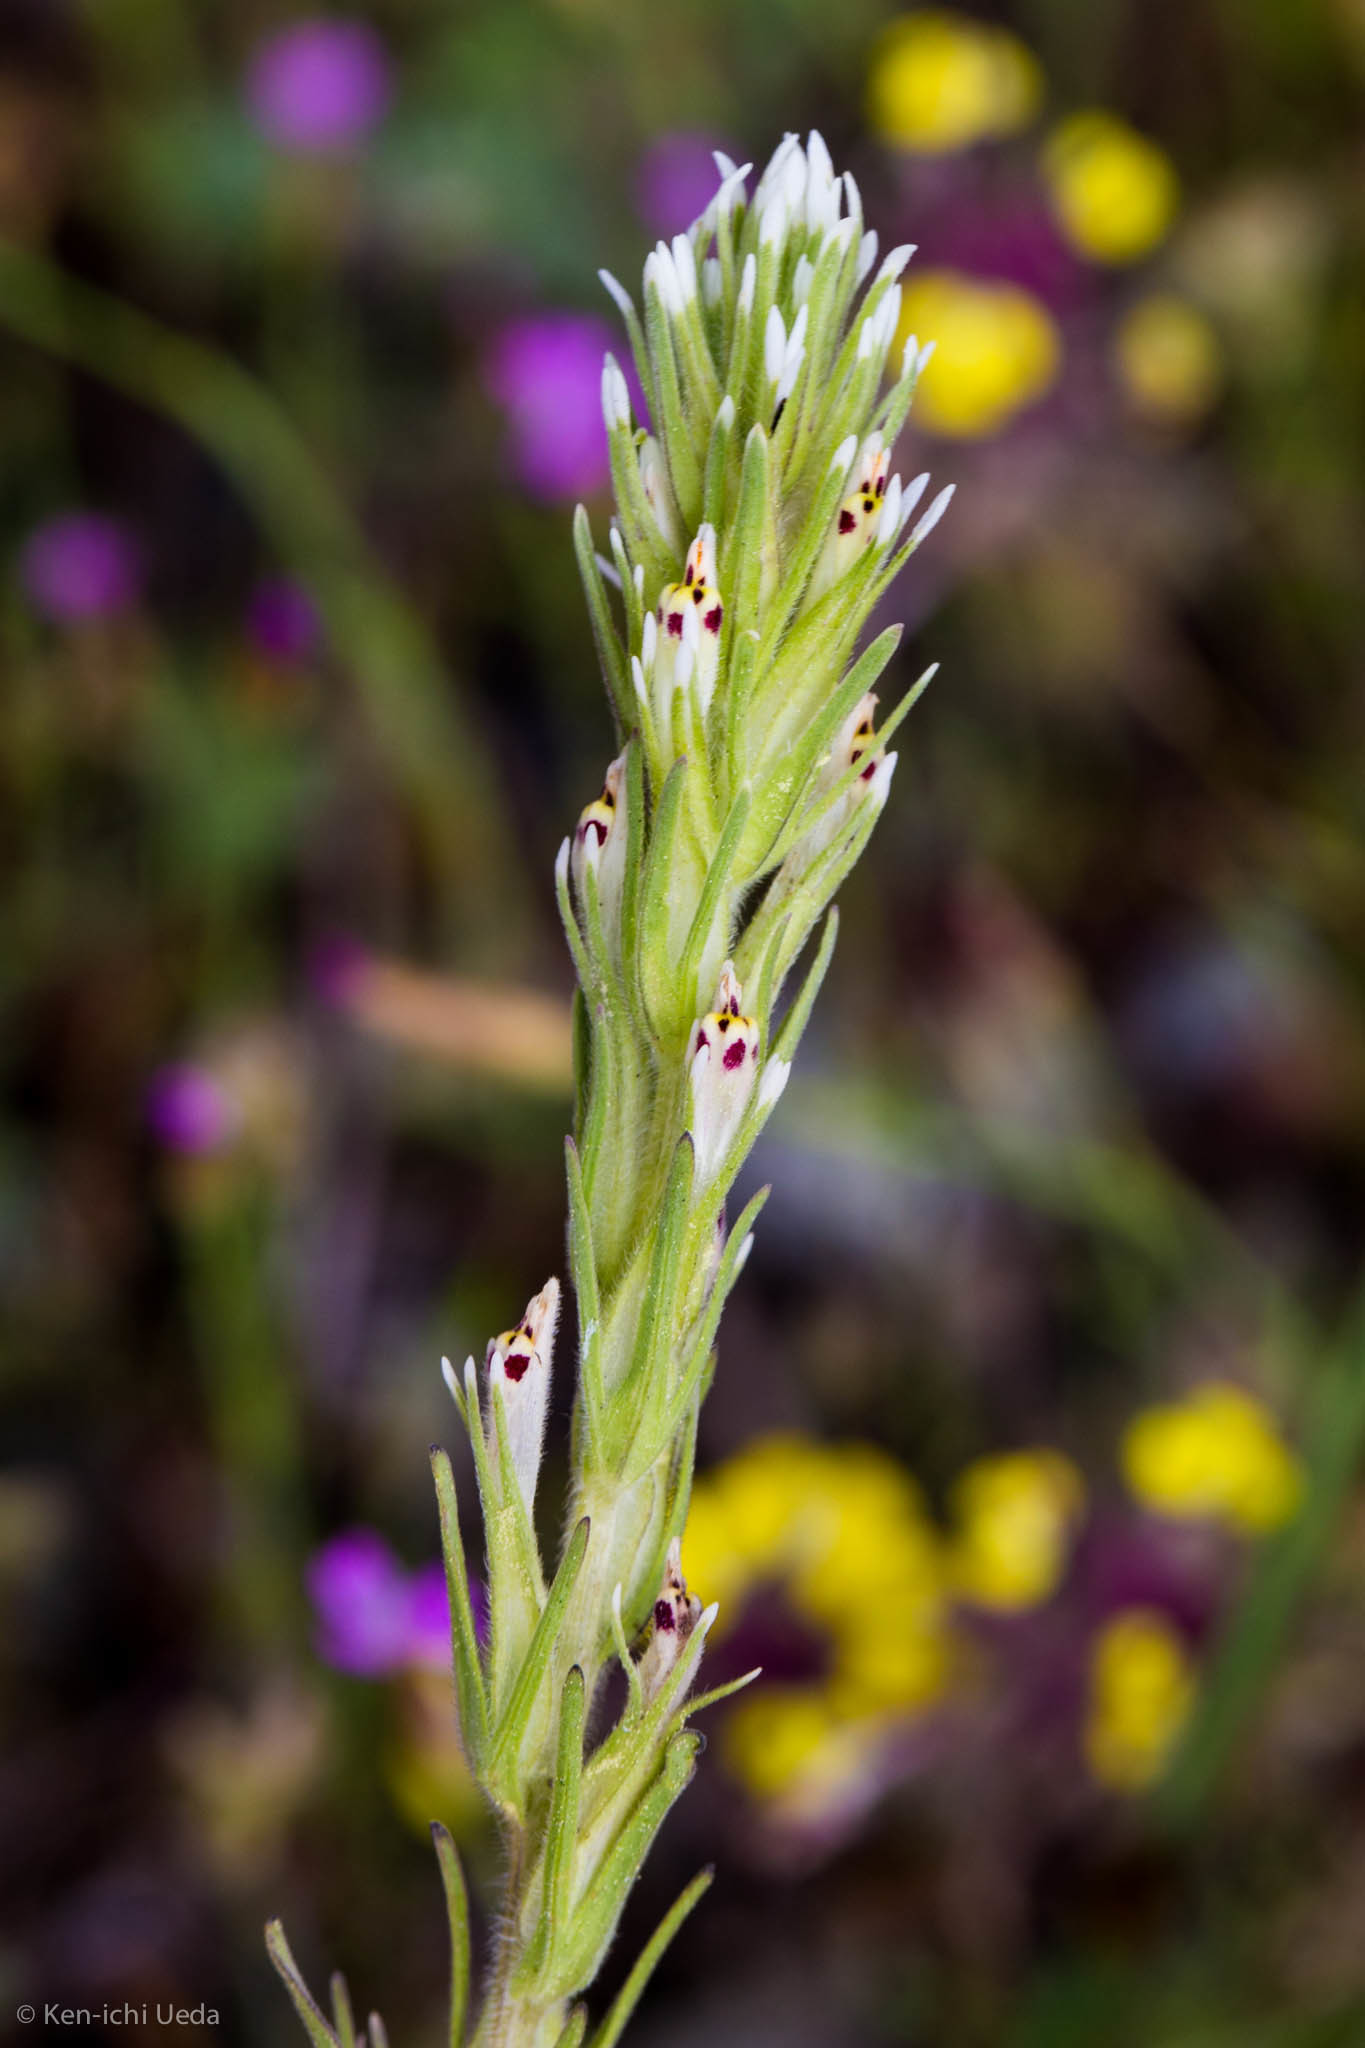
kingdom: Plantae
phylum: Tracheophyta
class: Magnoliopsida
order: Lamiales
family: Orobanchaceae
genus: Castilleja
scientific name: Castilleja attenuata
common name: Valley tassels
